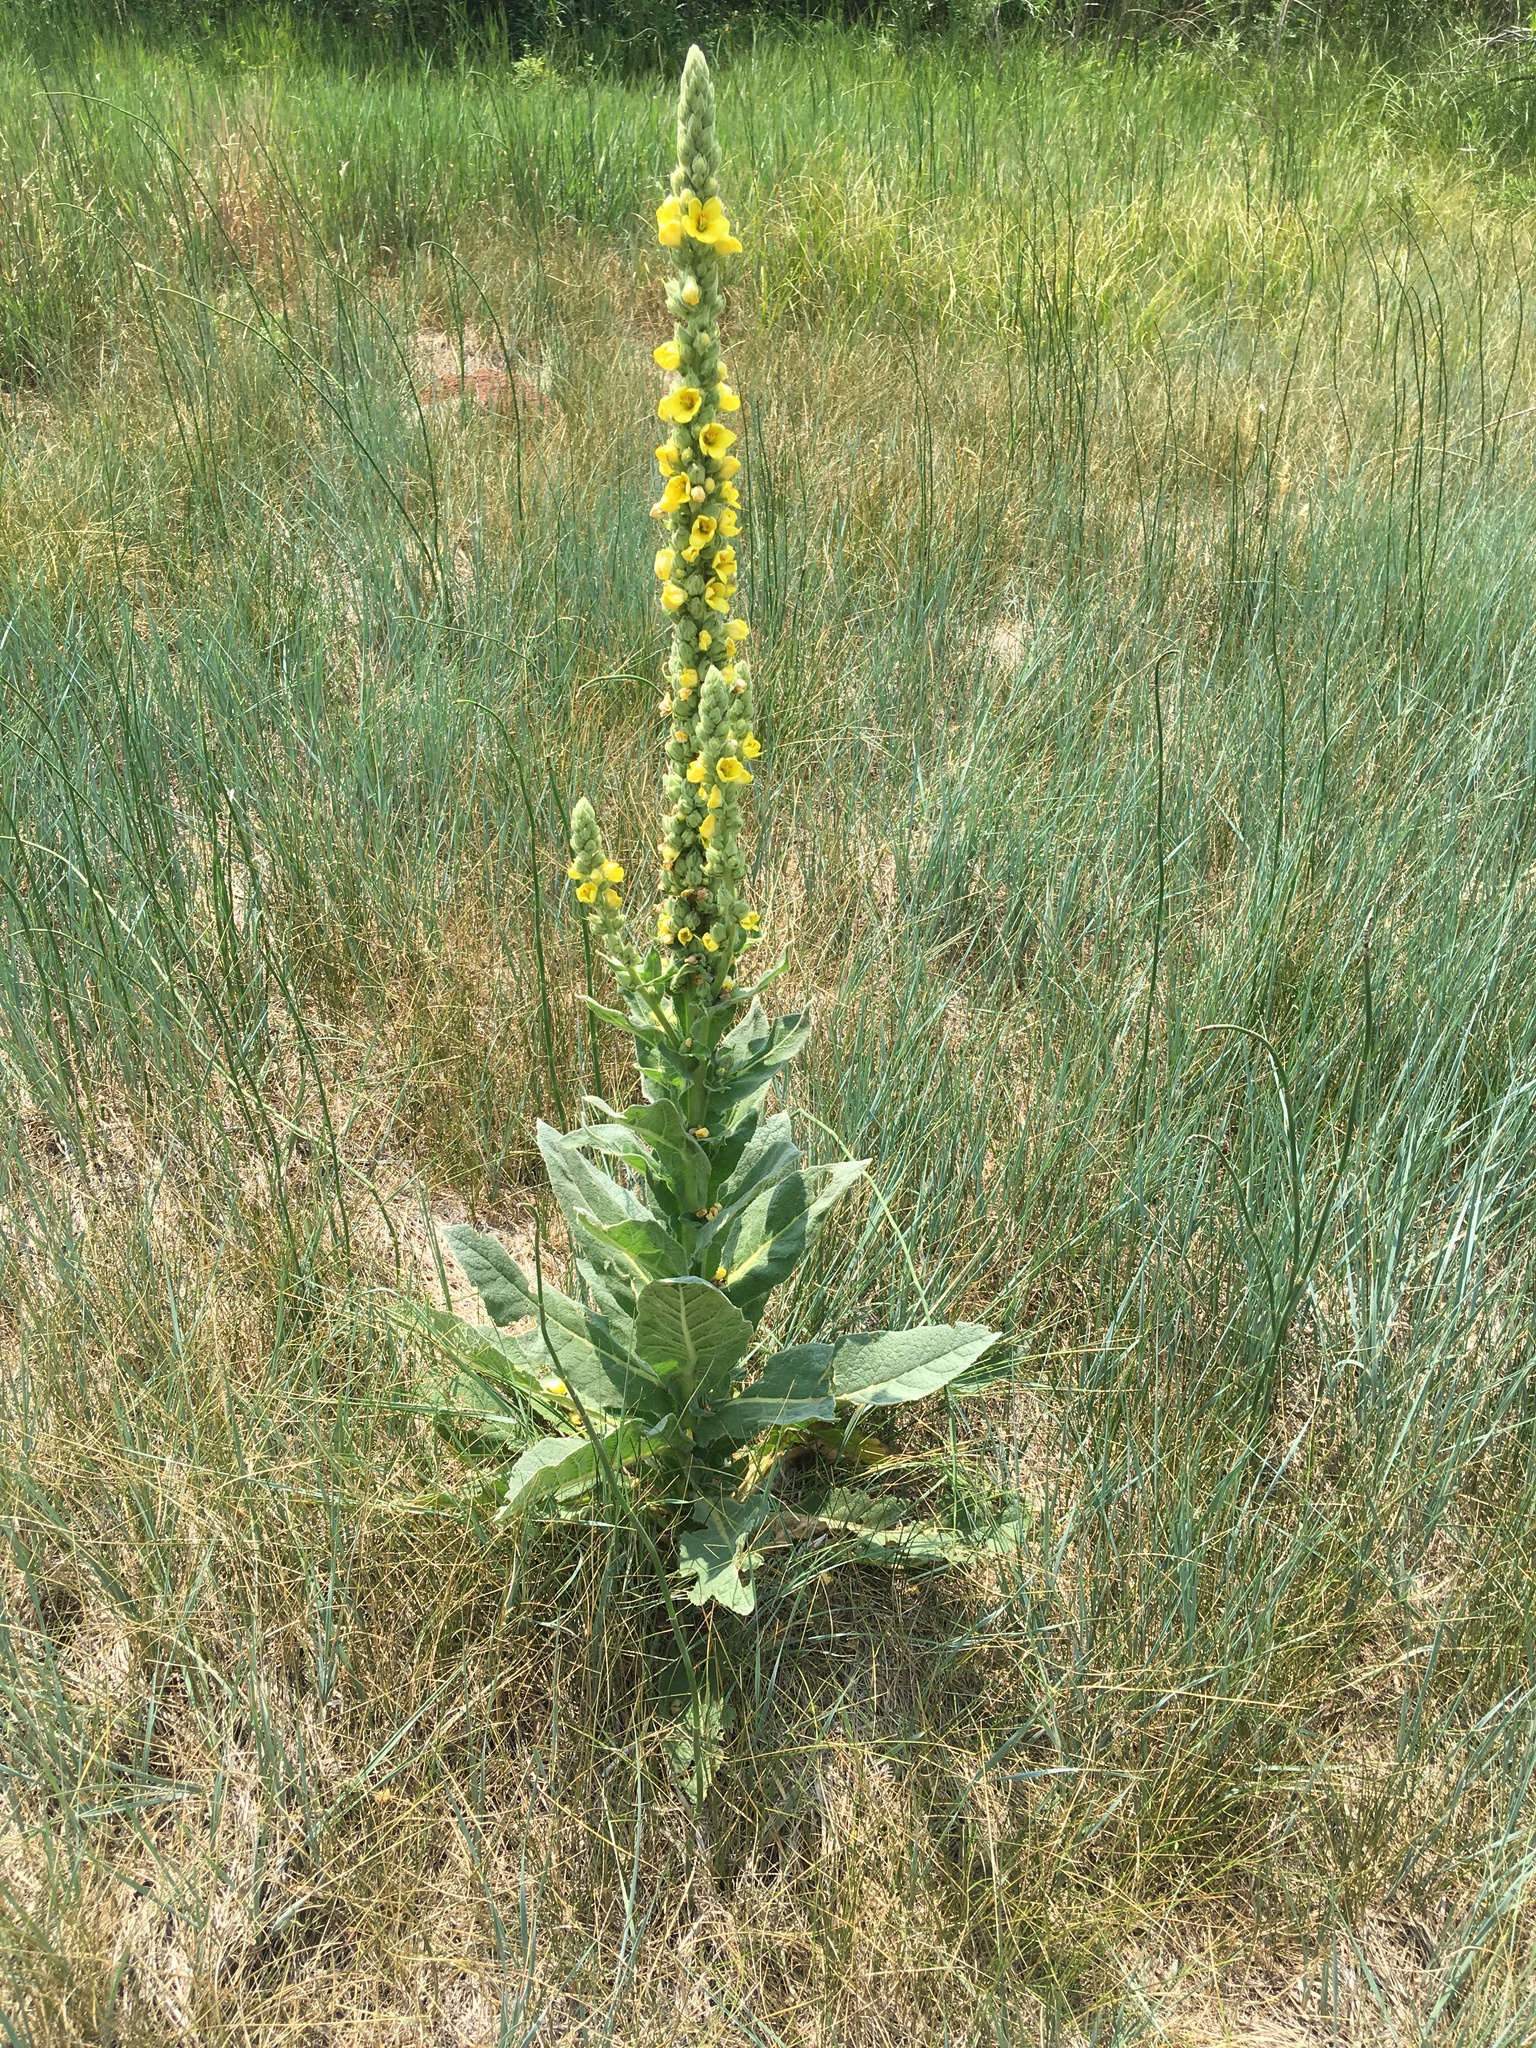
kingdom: Plantae
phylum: Tracheophyta
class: Magnoliopsida
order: Lamiales
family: Scrophulariaceae
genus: Verbascum
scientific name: Verbascum thapsus
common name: Common mullein
